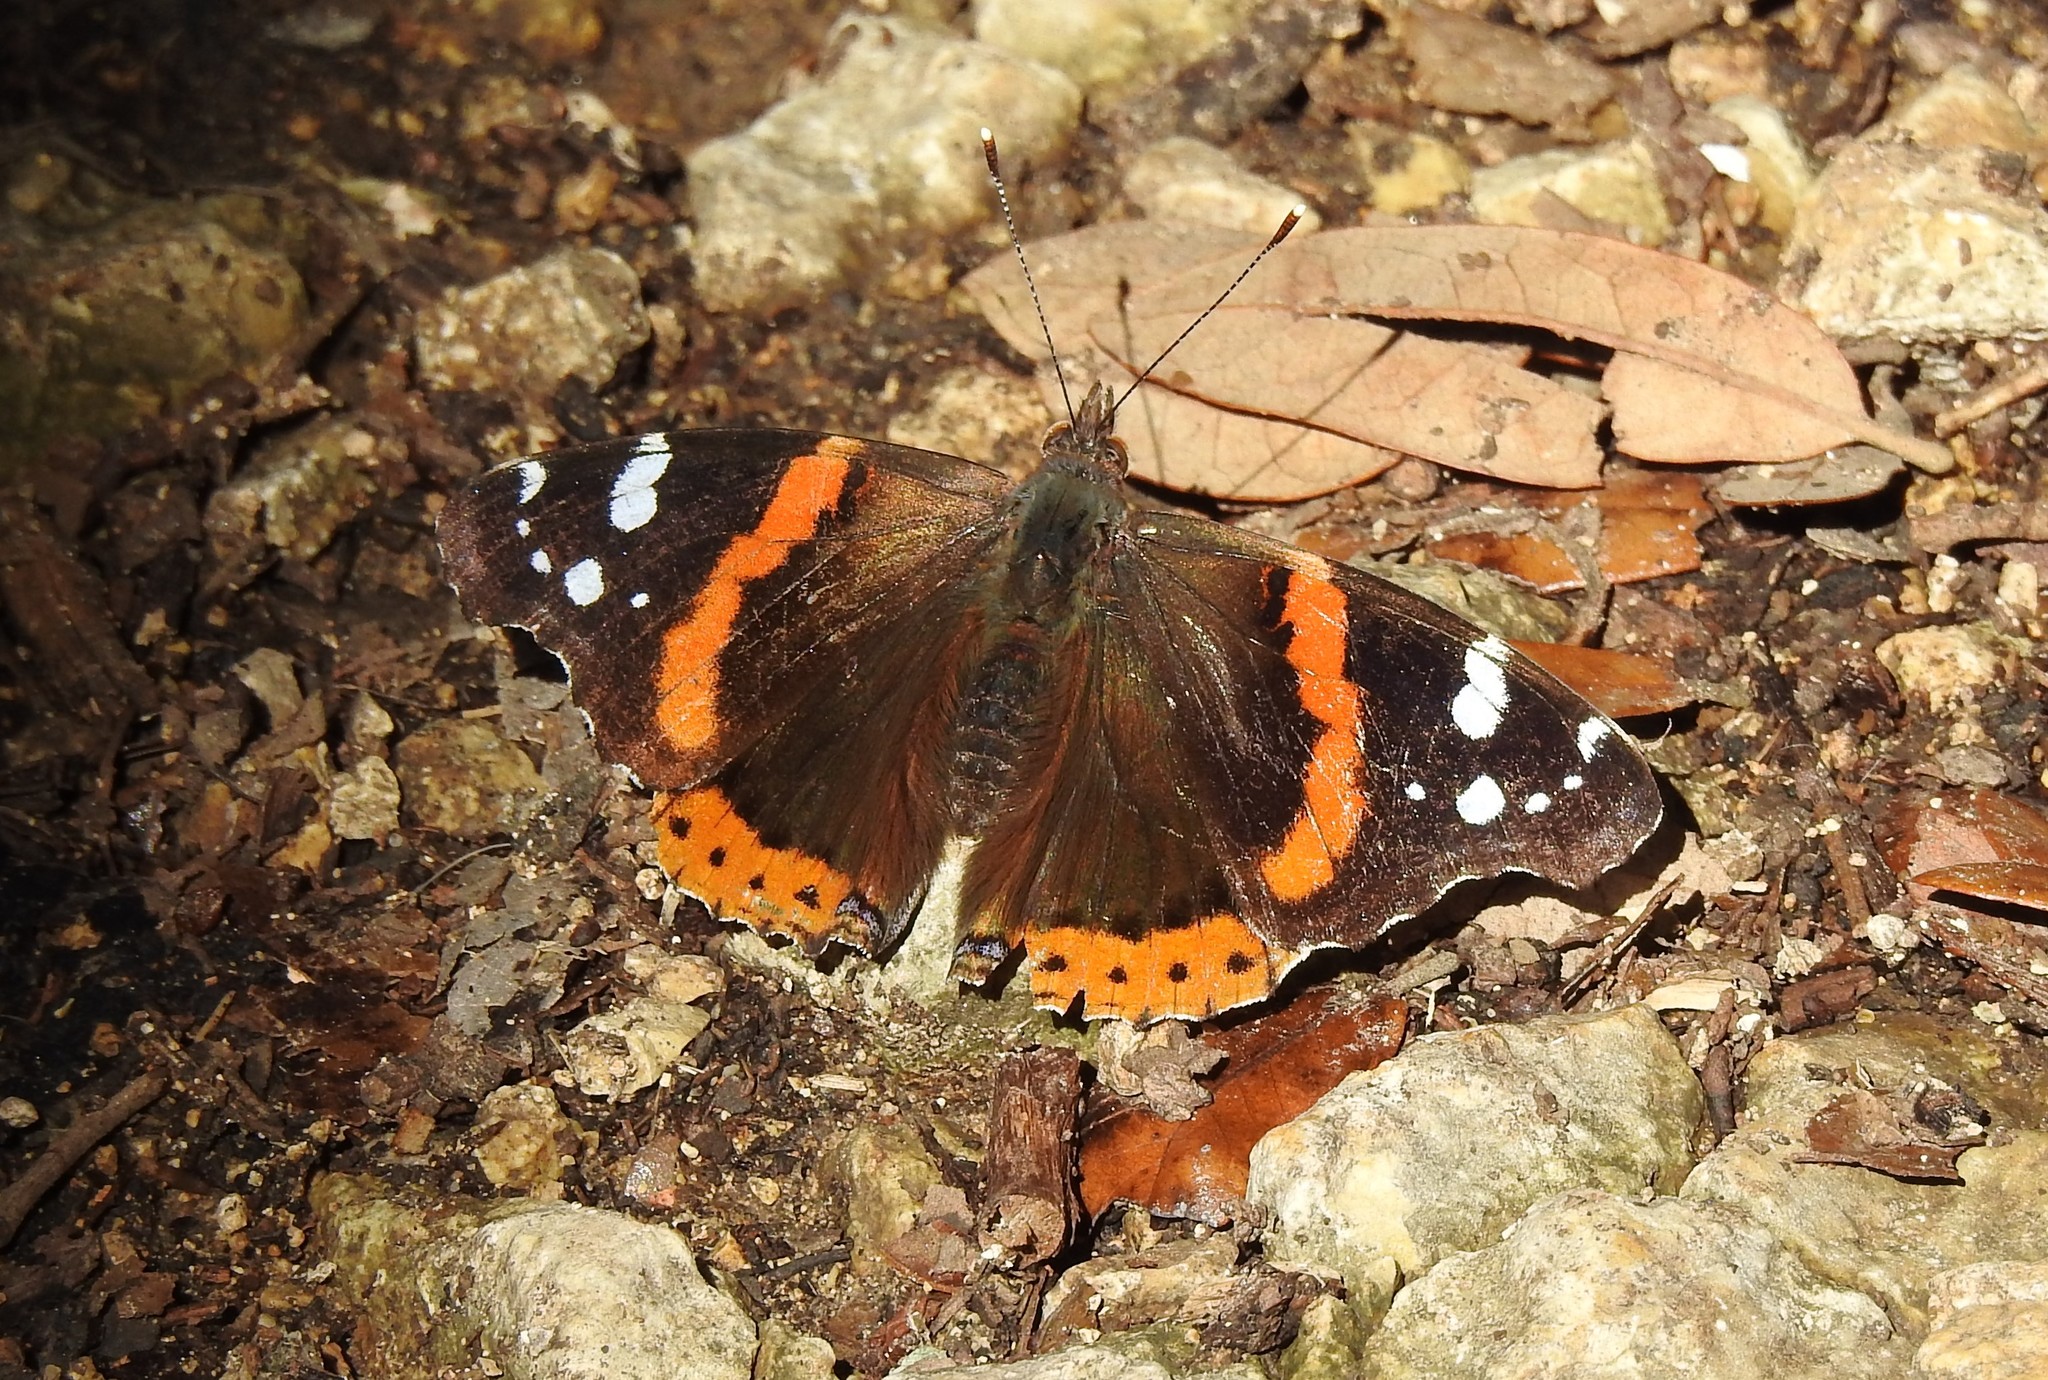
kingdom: Animalia
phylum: Arthropoda
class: Insecta
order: Lepidoptera
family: Nymphalidae
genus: Vanessa
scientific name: Vanessa atalanta
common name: Red admiral
